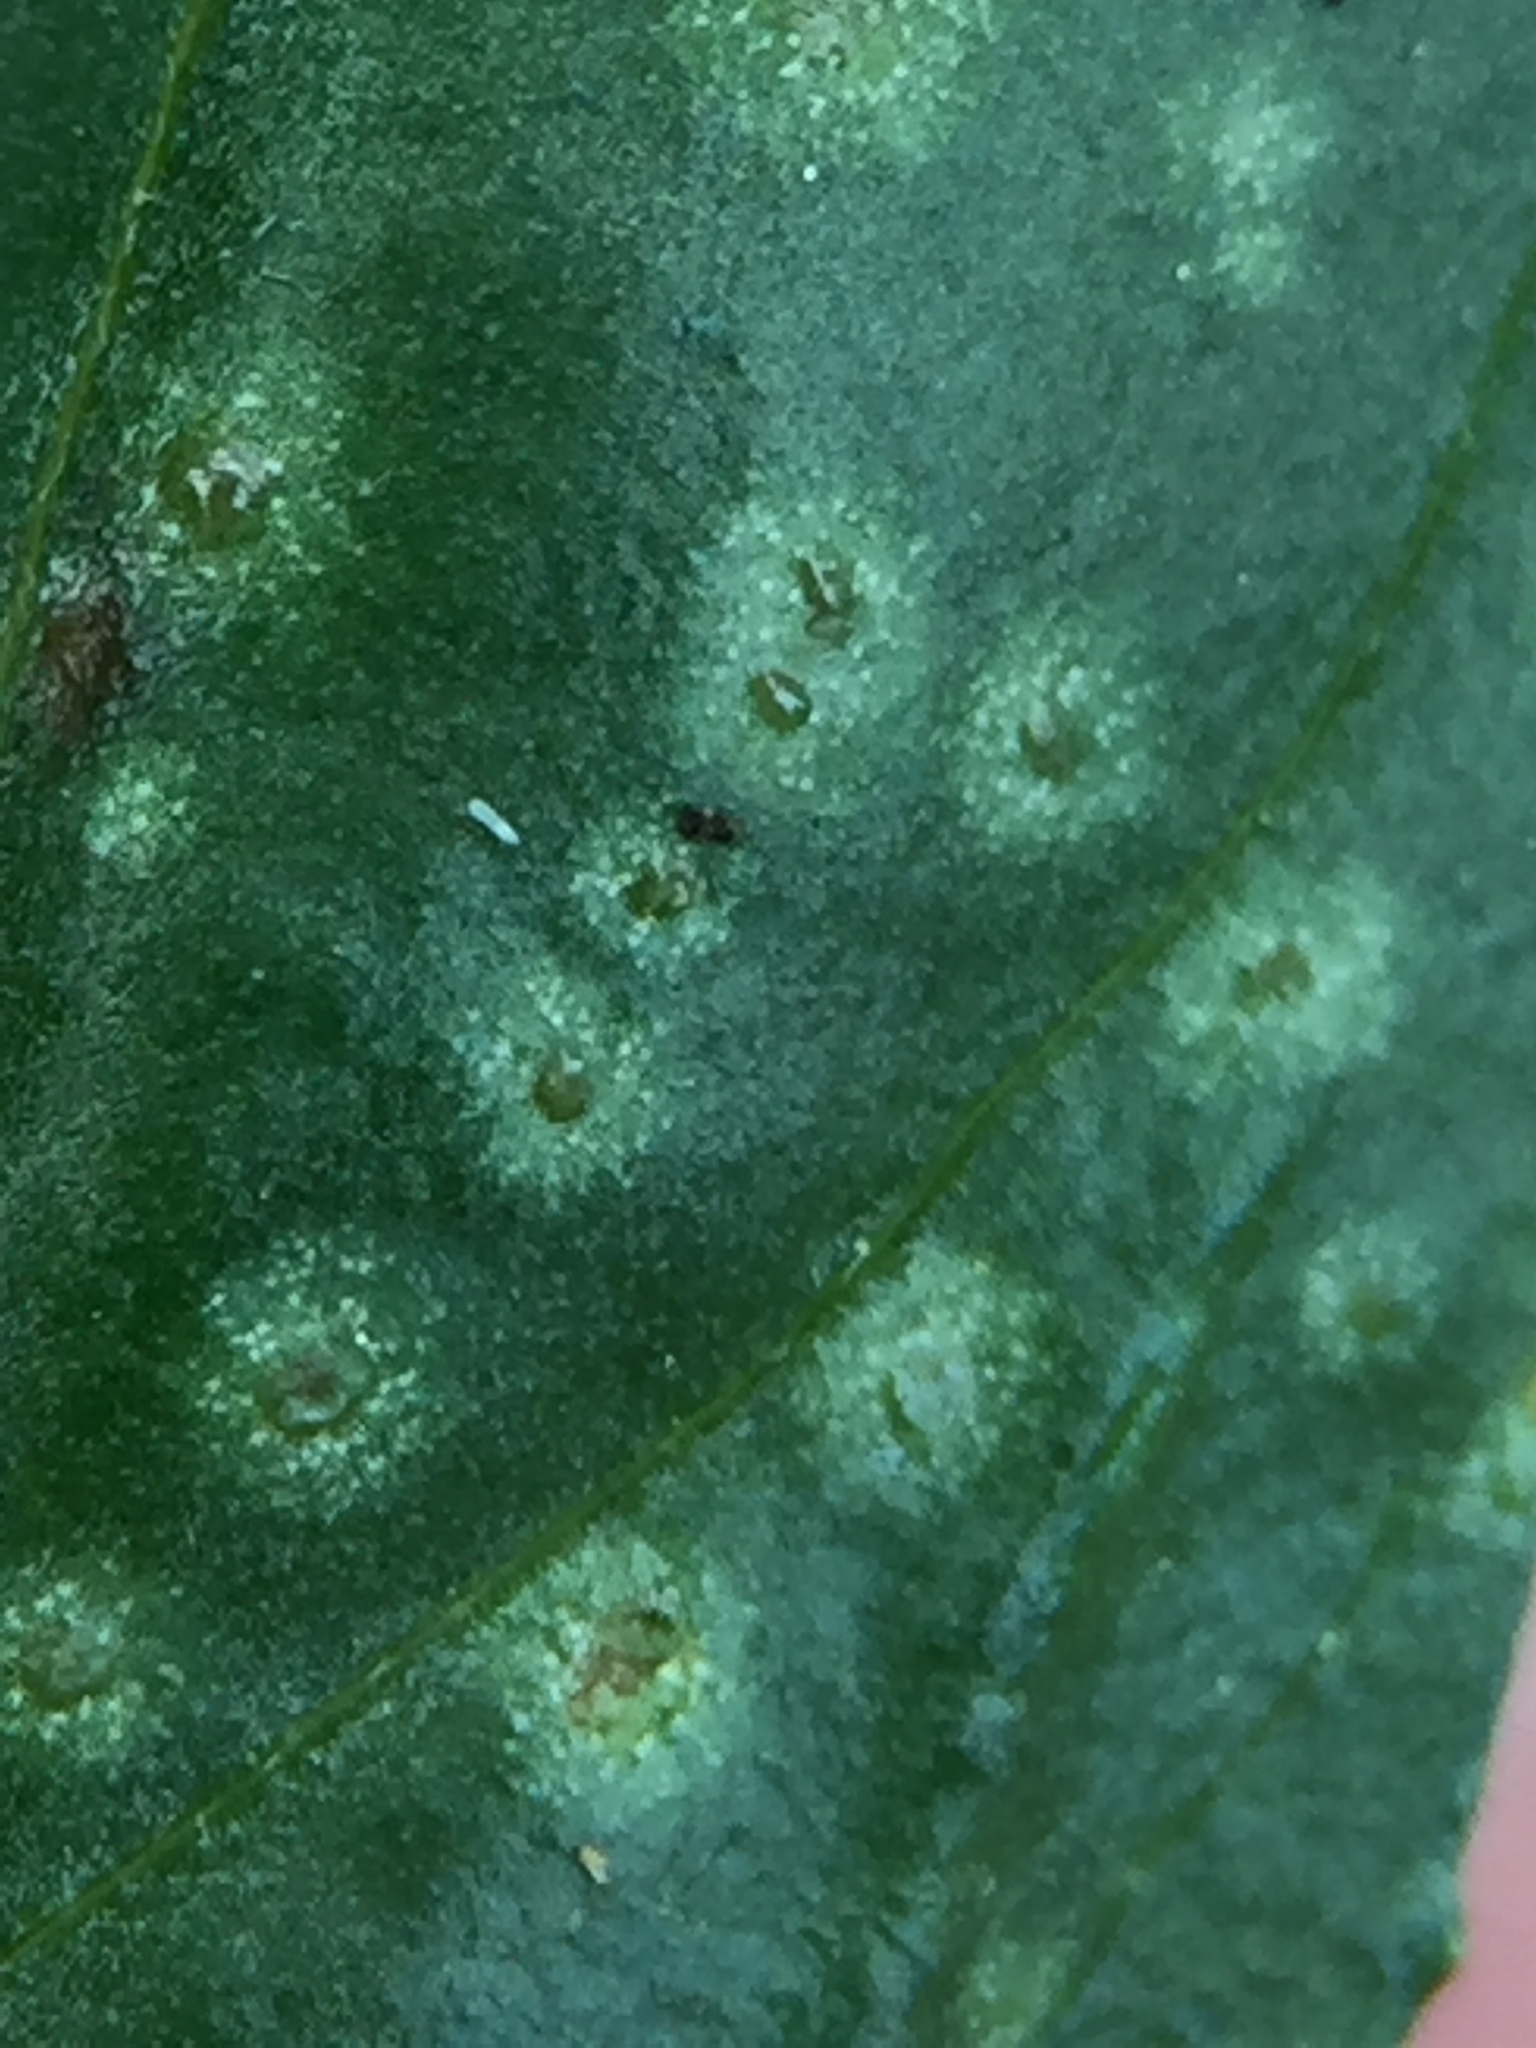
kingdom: Fungi
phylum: Chytridiomycota
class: Chytridiomycetes
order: Chytridiales
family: Synchytriaceae
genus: Synchytrium
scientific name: Synchytrium epilobii
